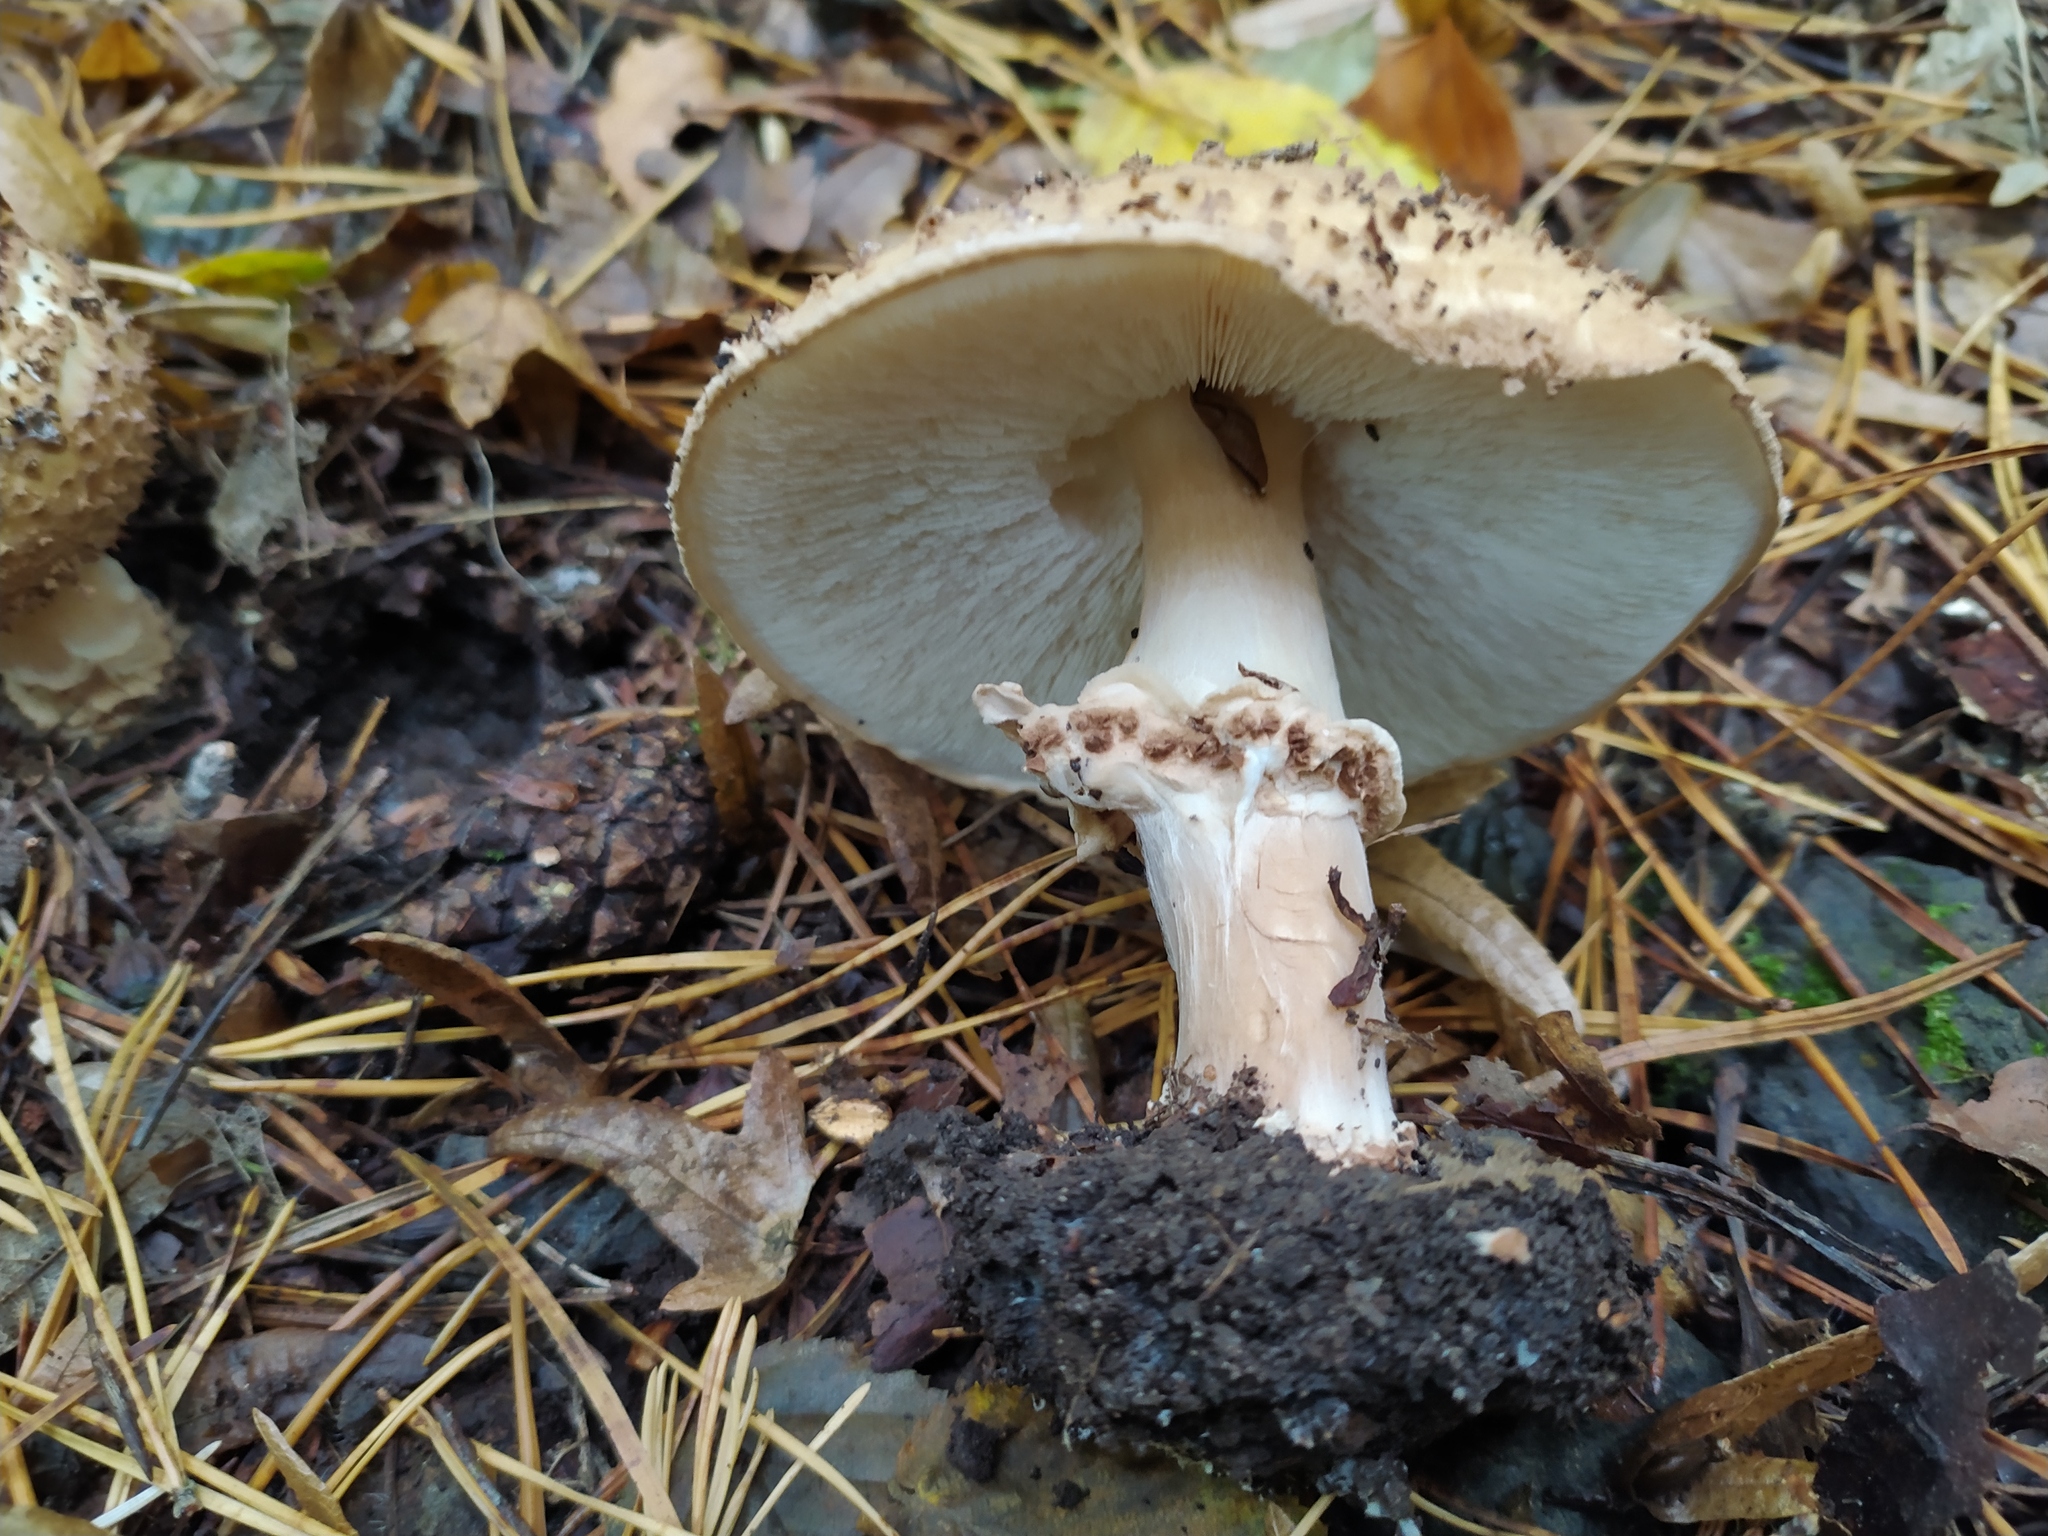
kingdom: Fungi
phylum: Basidiomycota
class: Agaricomycetes
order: Agaricales
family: Agaricaceae
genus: Echinoderma
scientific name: Echinoderma asperum
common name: Freckled dapperling
